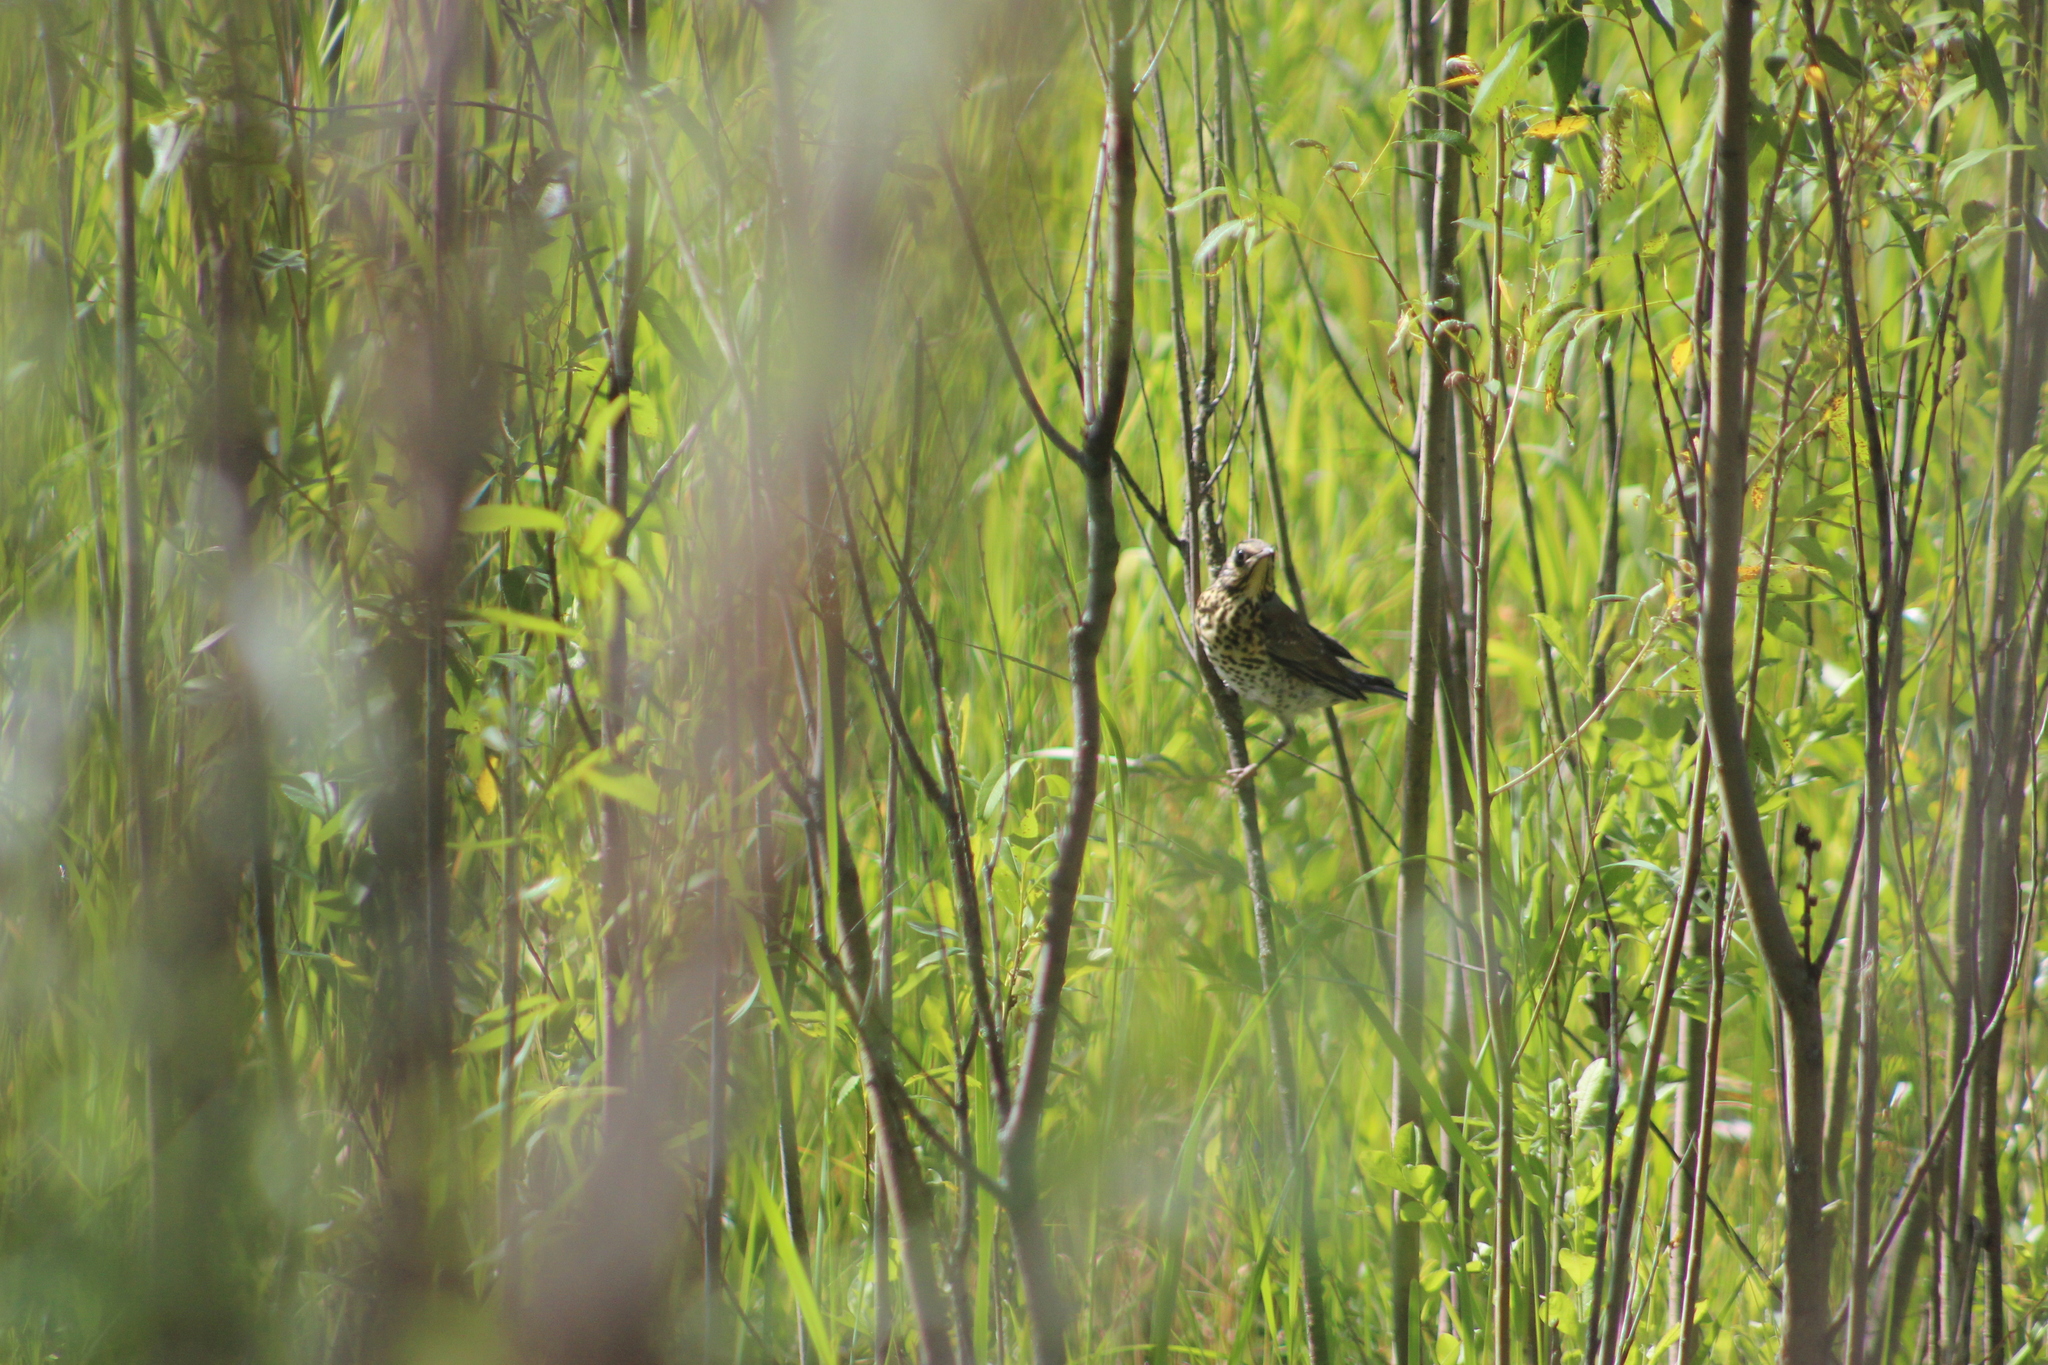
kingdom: Animalia
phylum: Chordata
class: Aves
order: Passeriformes
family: Turdidae
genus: Turdus
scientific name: Turdus pilaris
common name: Fieldfare
